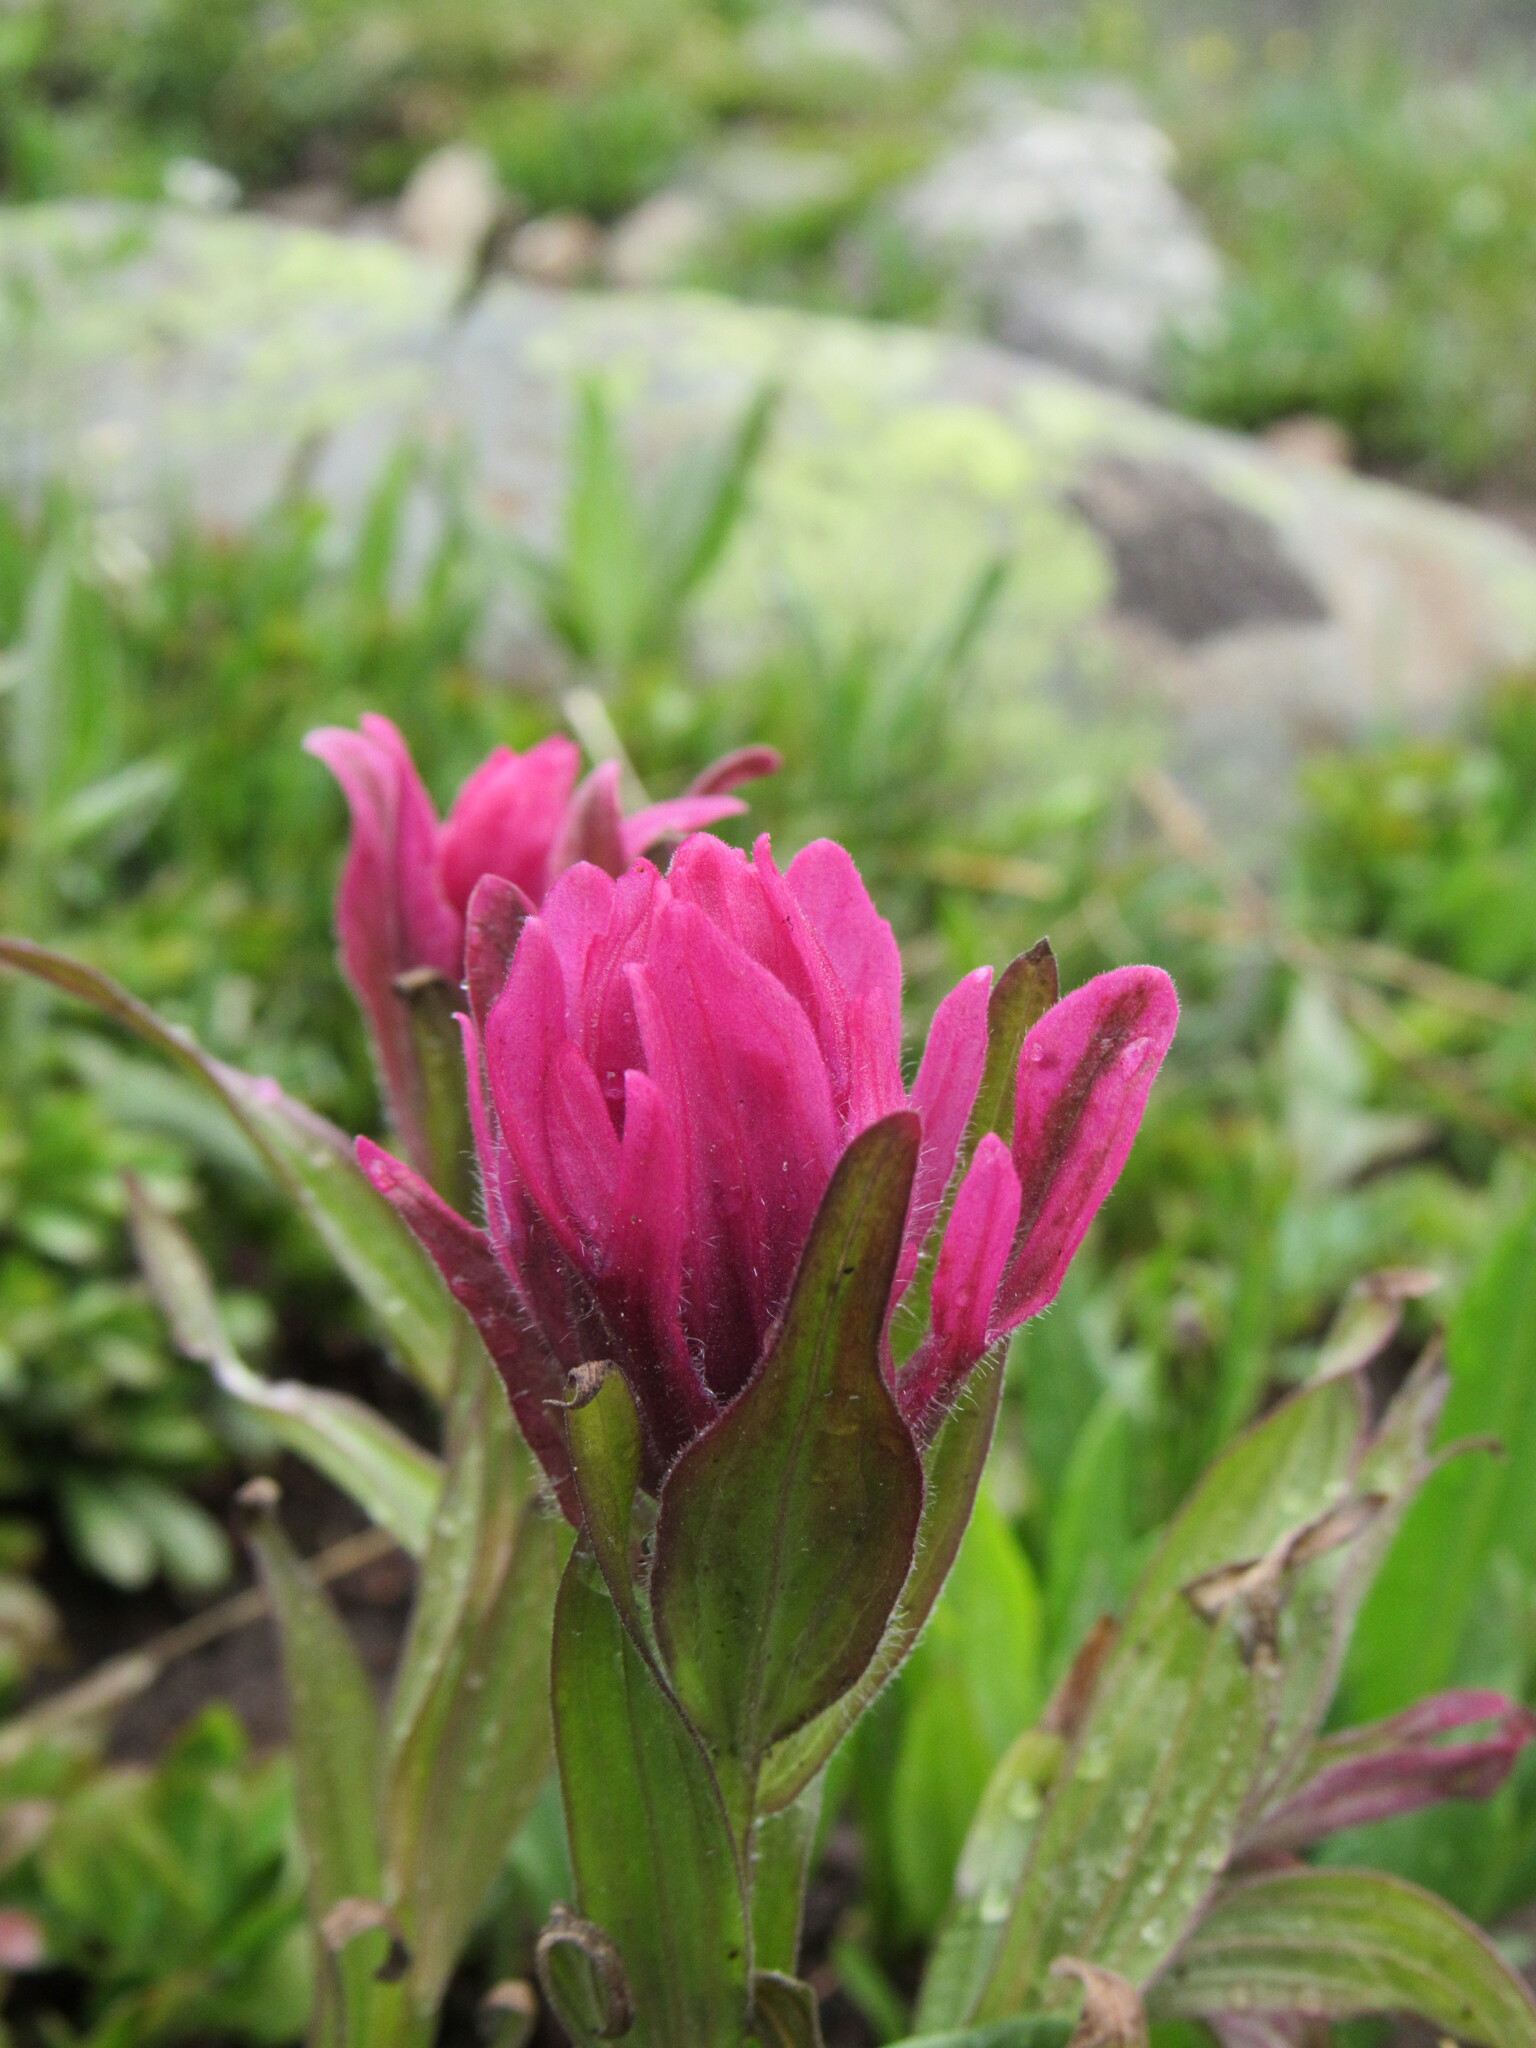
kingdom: Plantae
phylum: Tracheophyta
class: Magnoliopsida
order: Lamiales
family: Orobanchaceae
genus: Castilleja
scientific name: Castilleja rhexifolia
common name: Rocky mountain paintbrush
